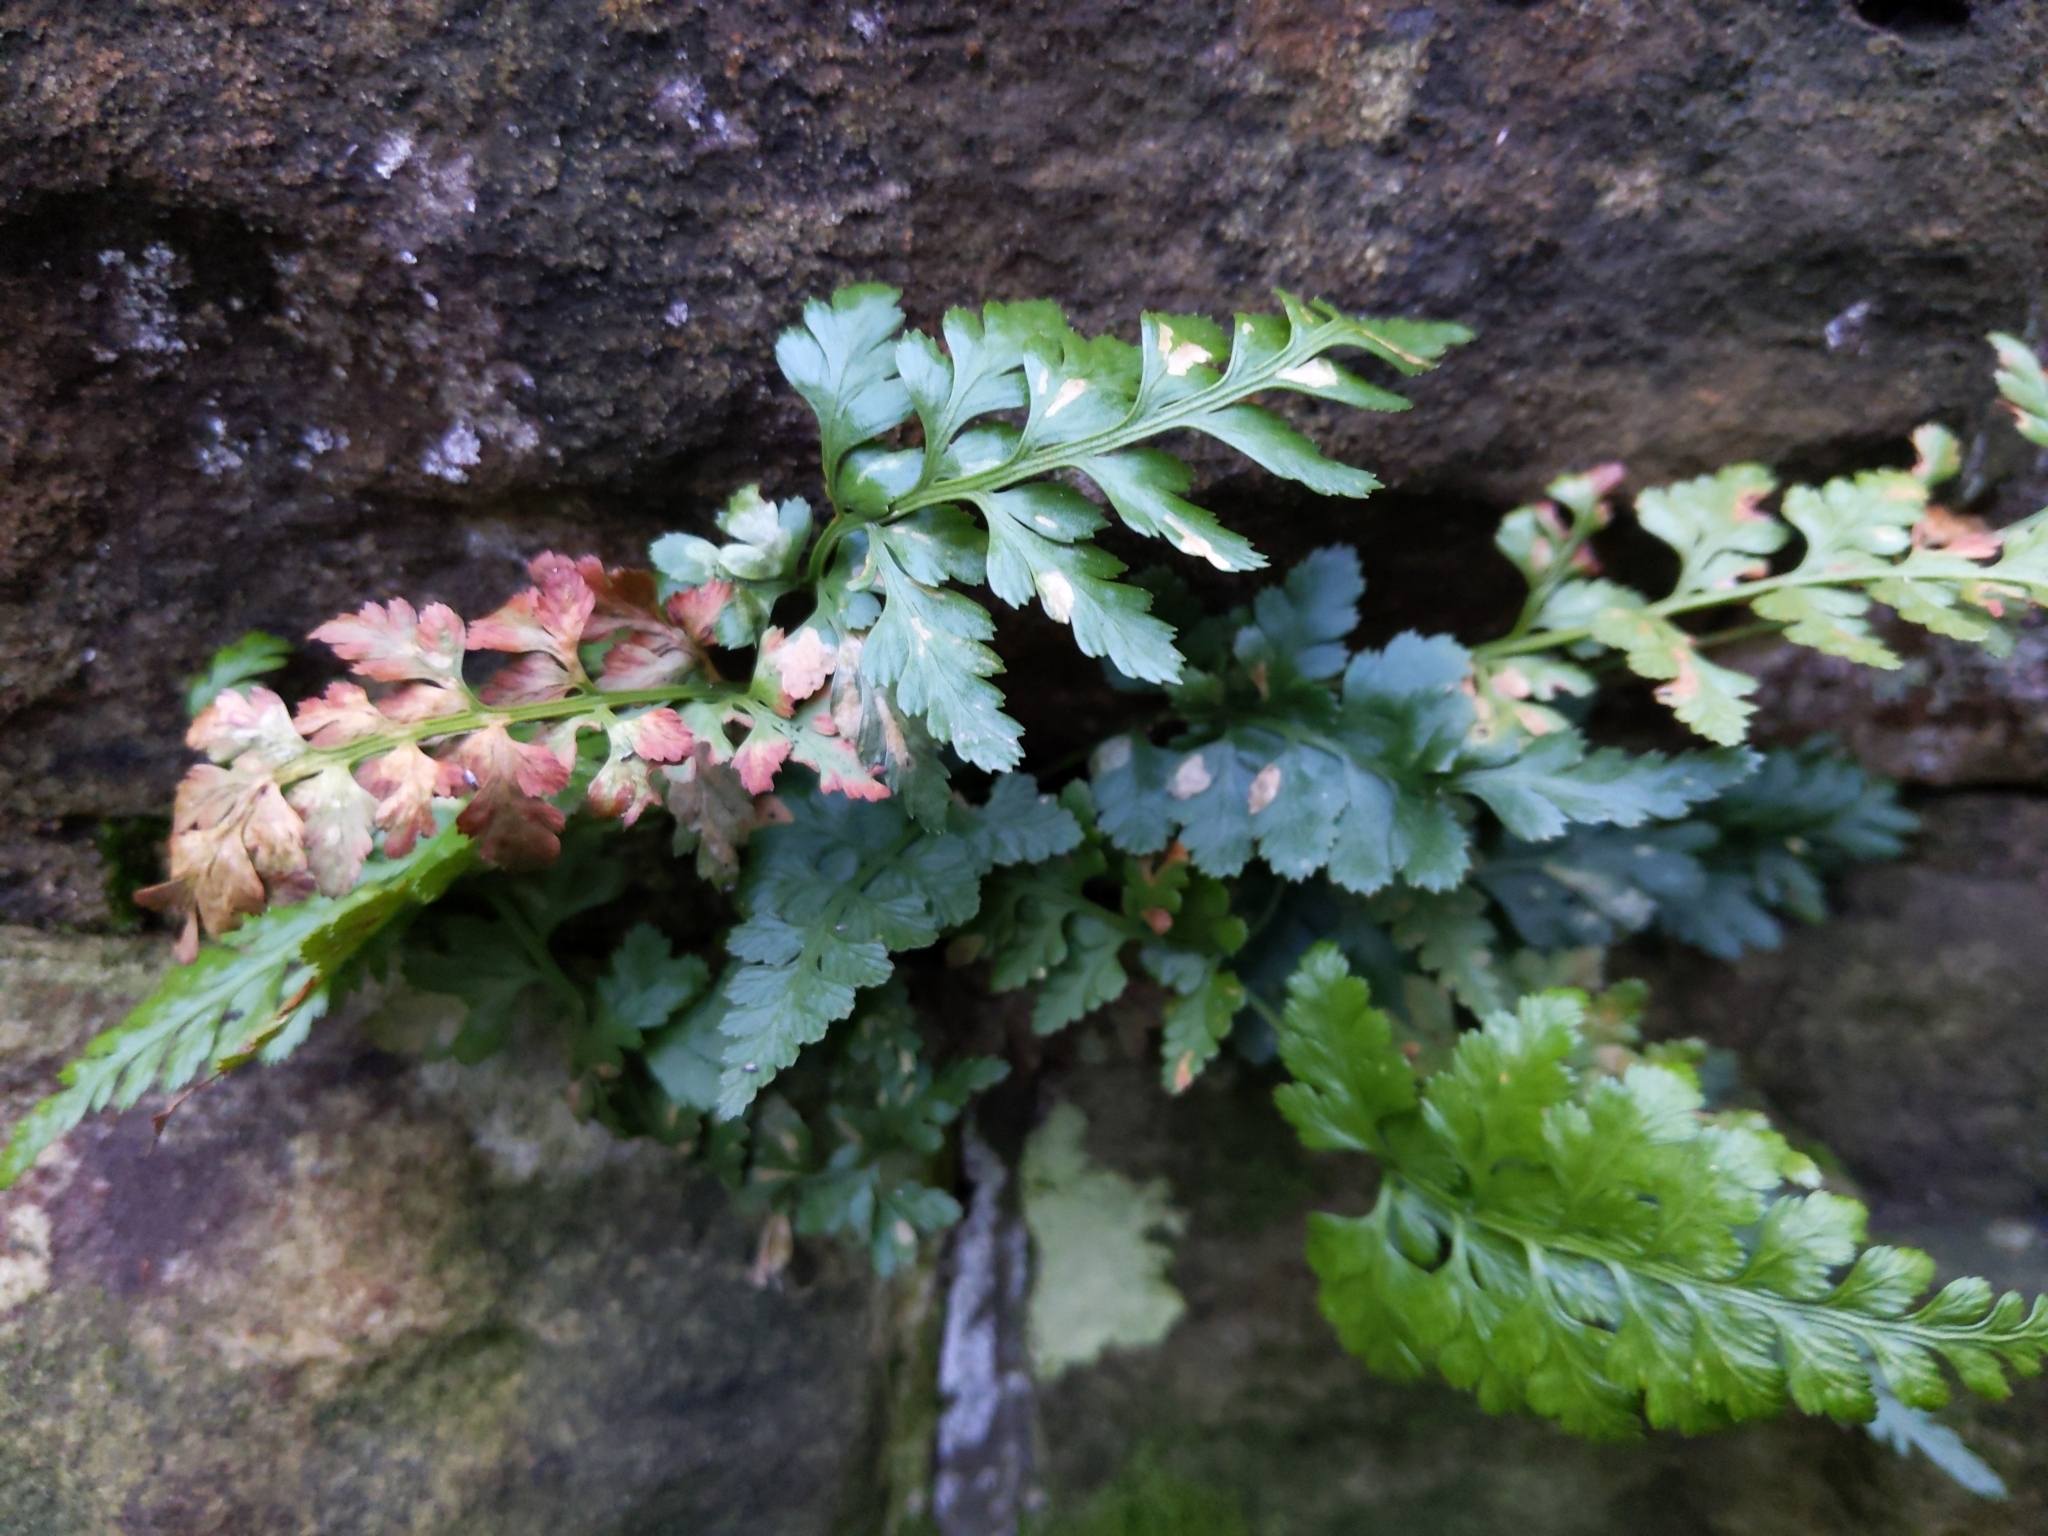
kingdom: Plantae
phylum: Tracheophyta
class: Polypodiopsida
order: Polypodiales
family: Aspleniaceae
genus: Asplenium
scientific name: Asplenium adiantum-nigrum
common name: Black spleenwort
